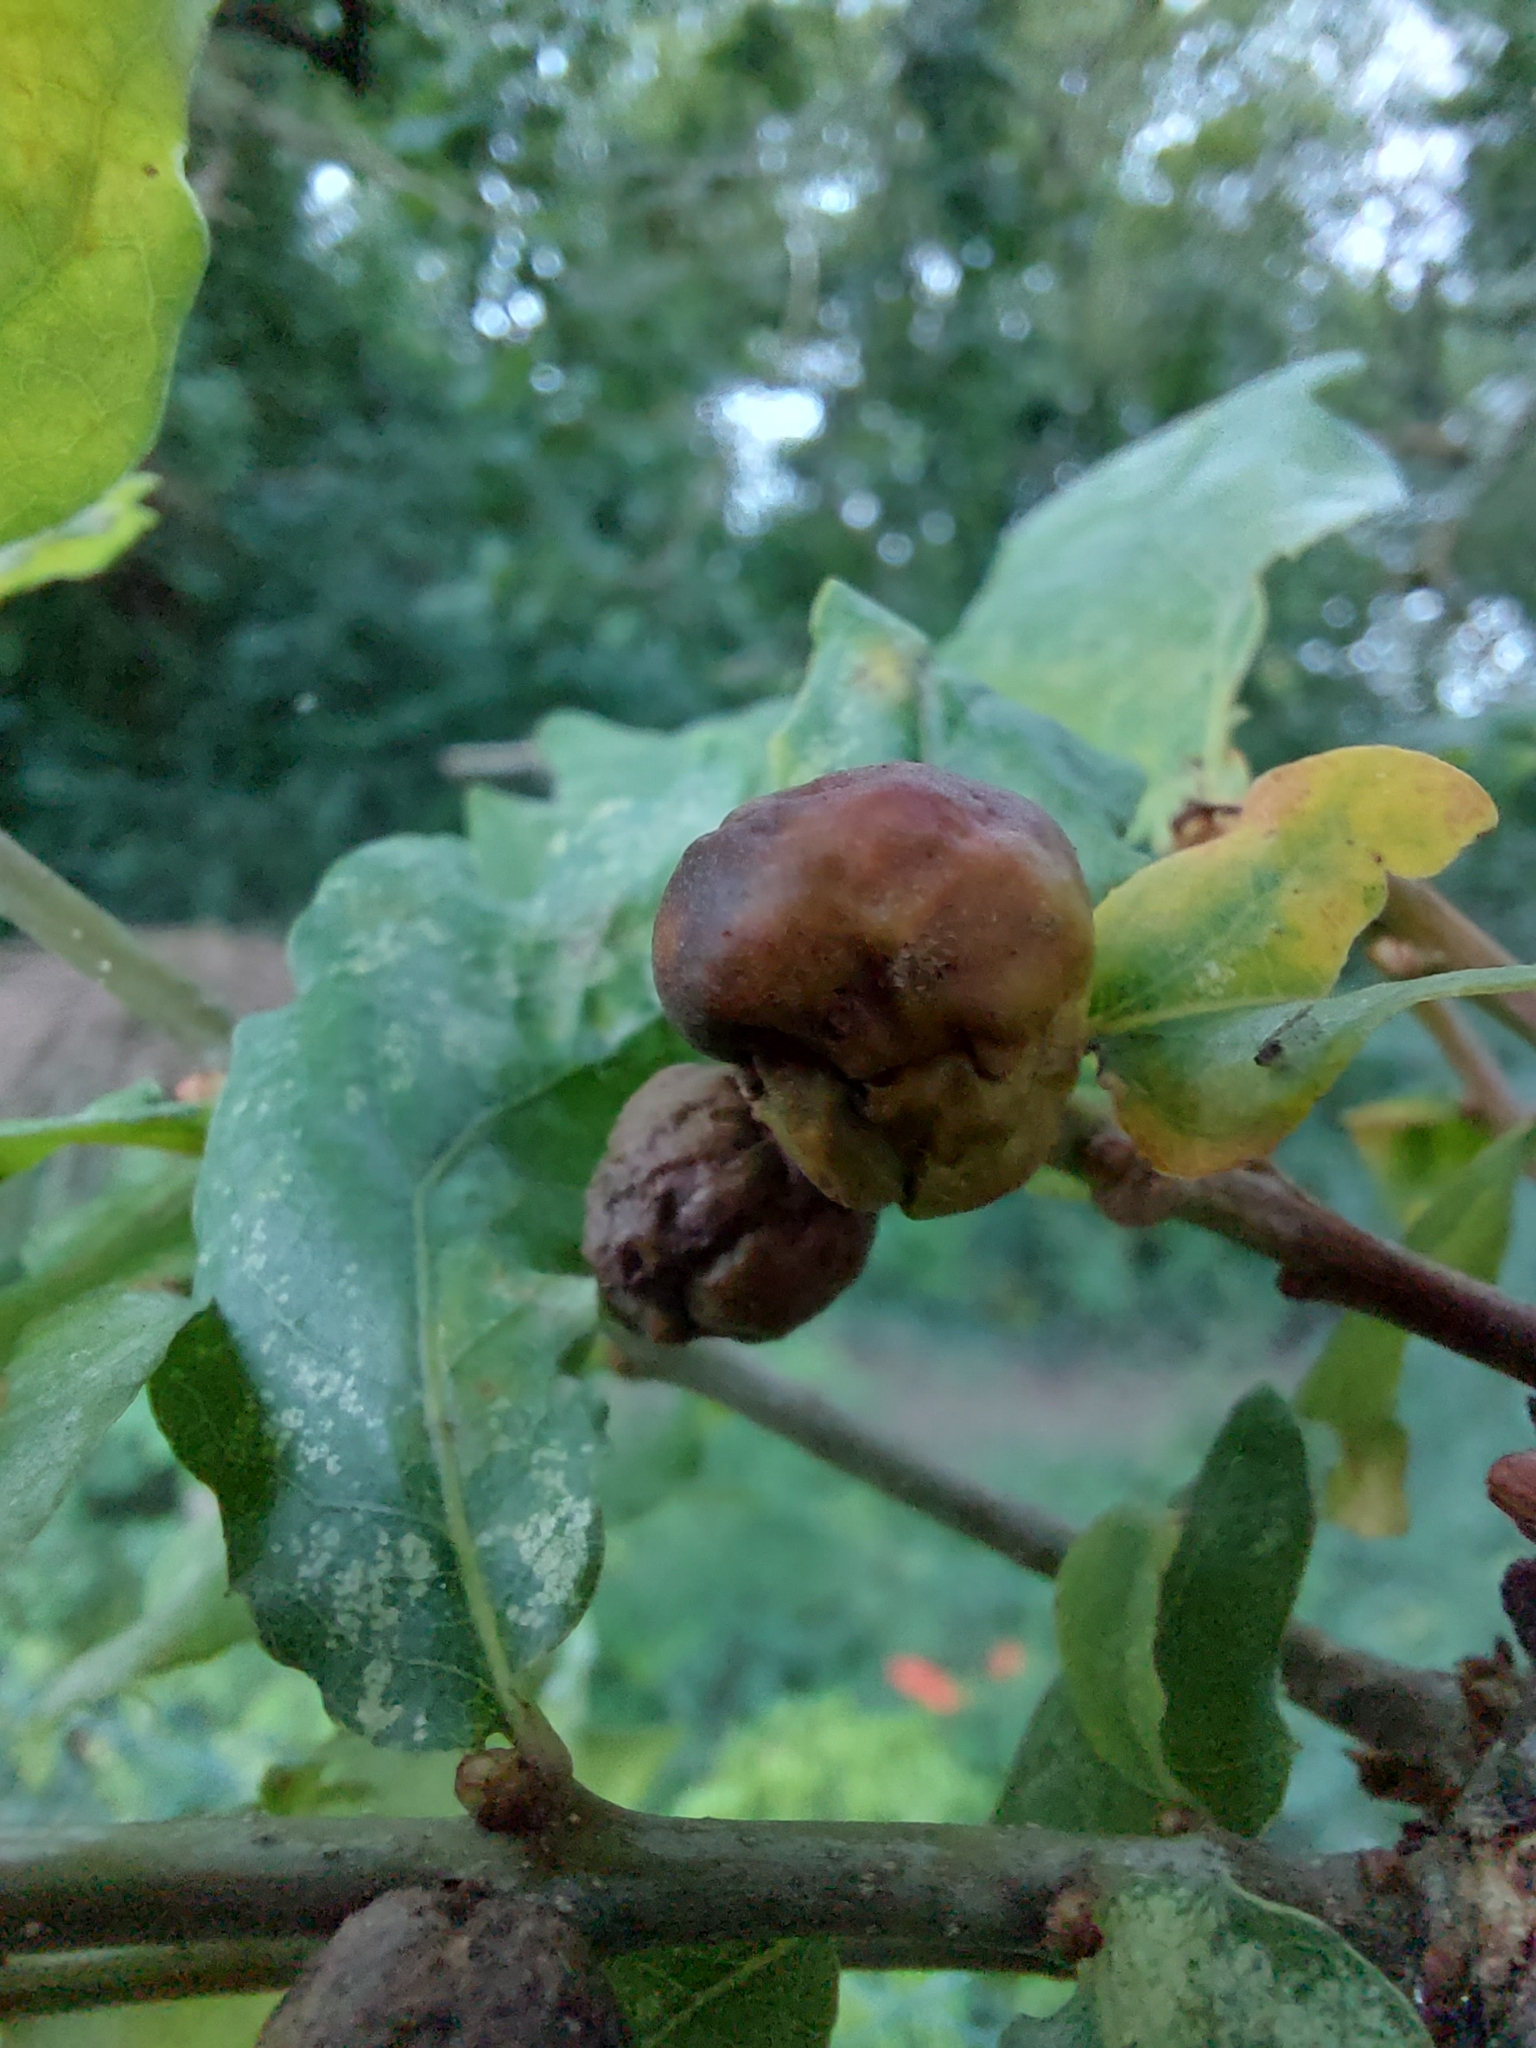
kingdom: Animalia
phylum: Arthropoda
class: Insecta
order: Hymenoptera
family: Cynipidae
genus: Biorhiza
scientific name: Biorhiza pallida
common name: Oak apple
